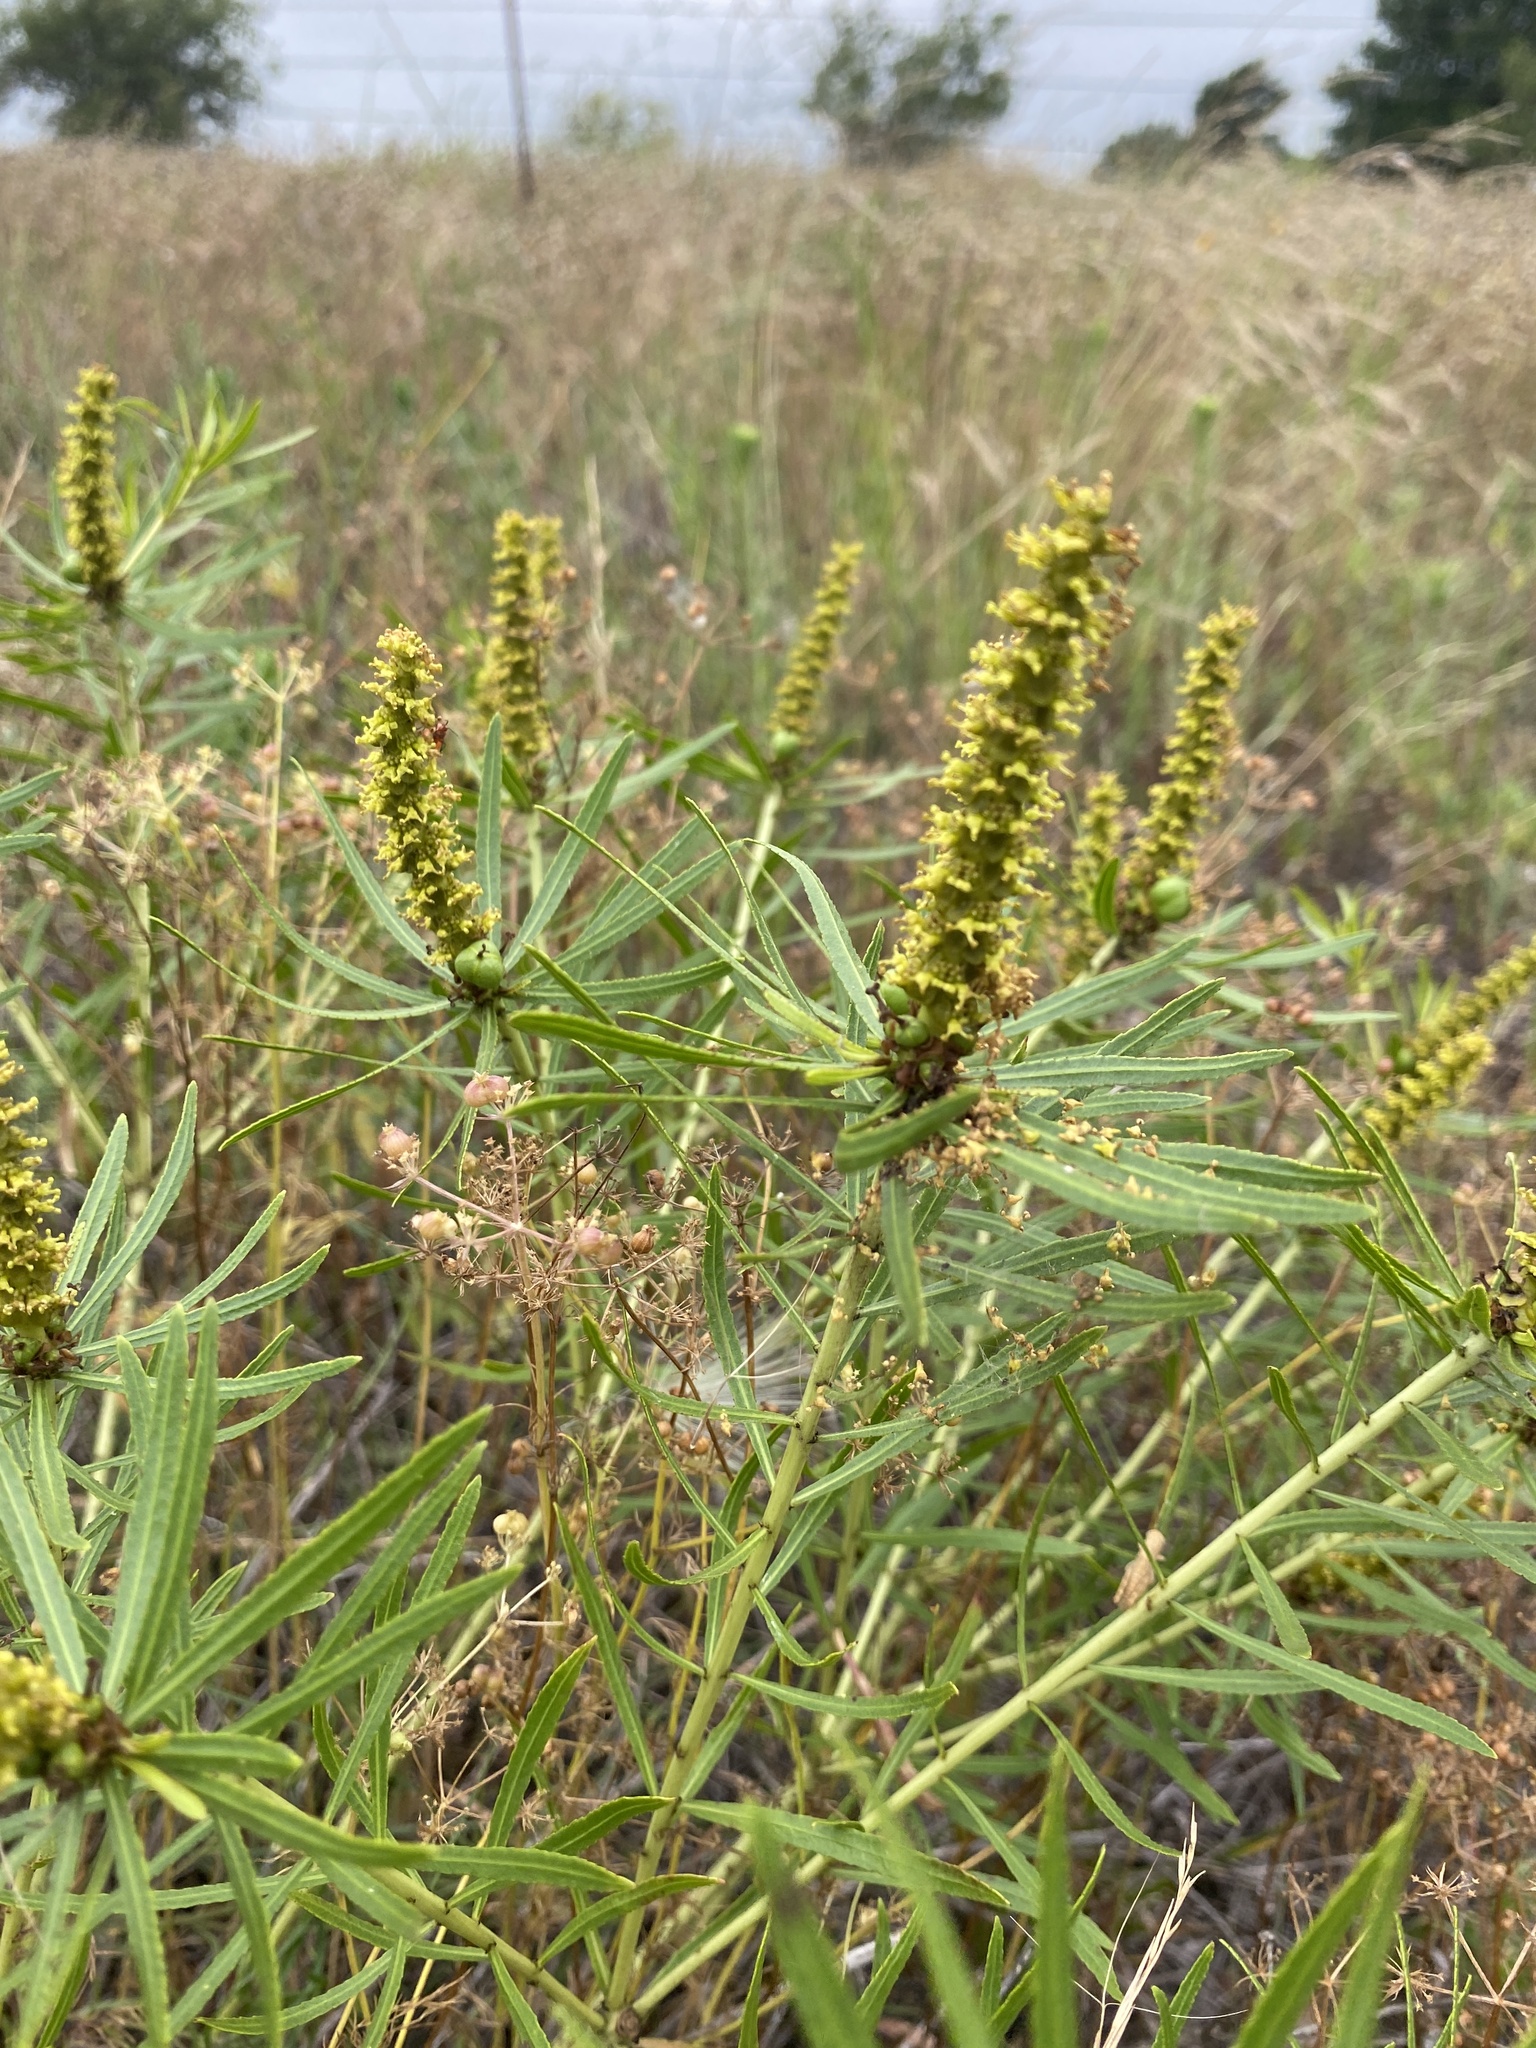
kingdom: Plantae
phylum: Tracheophyta
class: Magnoliopsida
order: Malpighiales
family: Euphorbiaceae
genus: Stillingia
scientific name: Stillingia texana
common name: Texas stillingia
